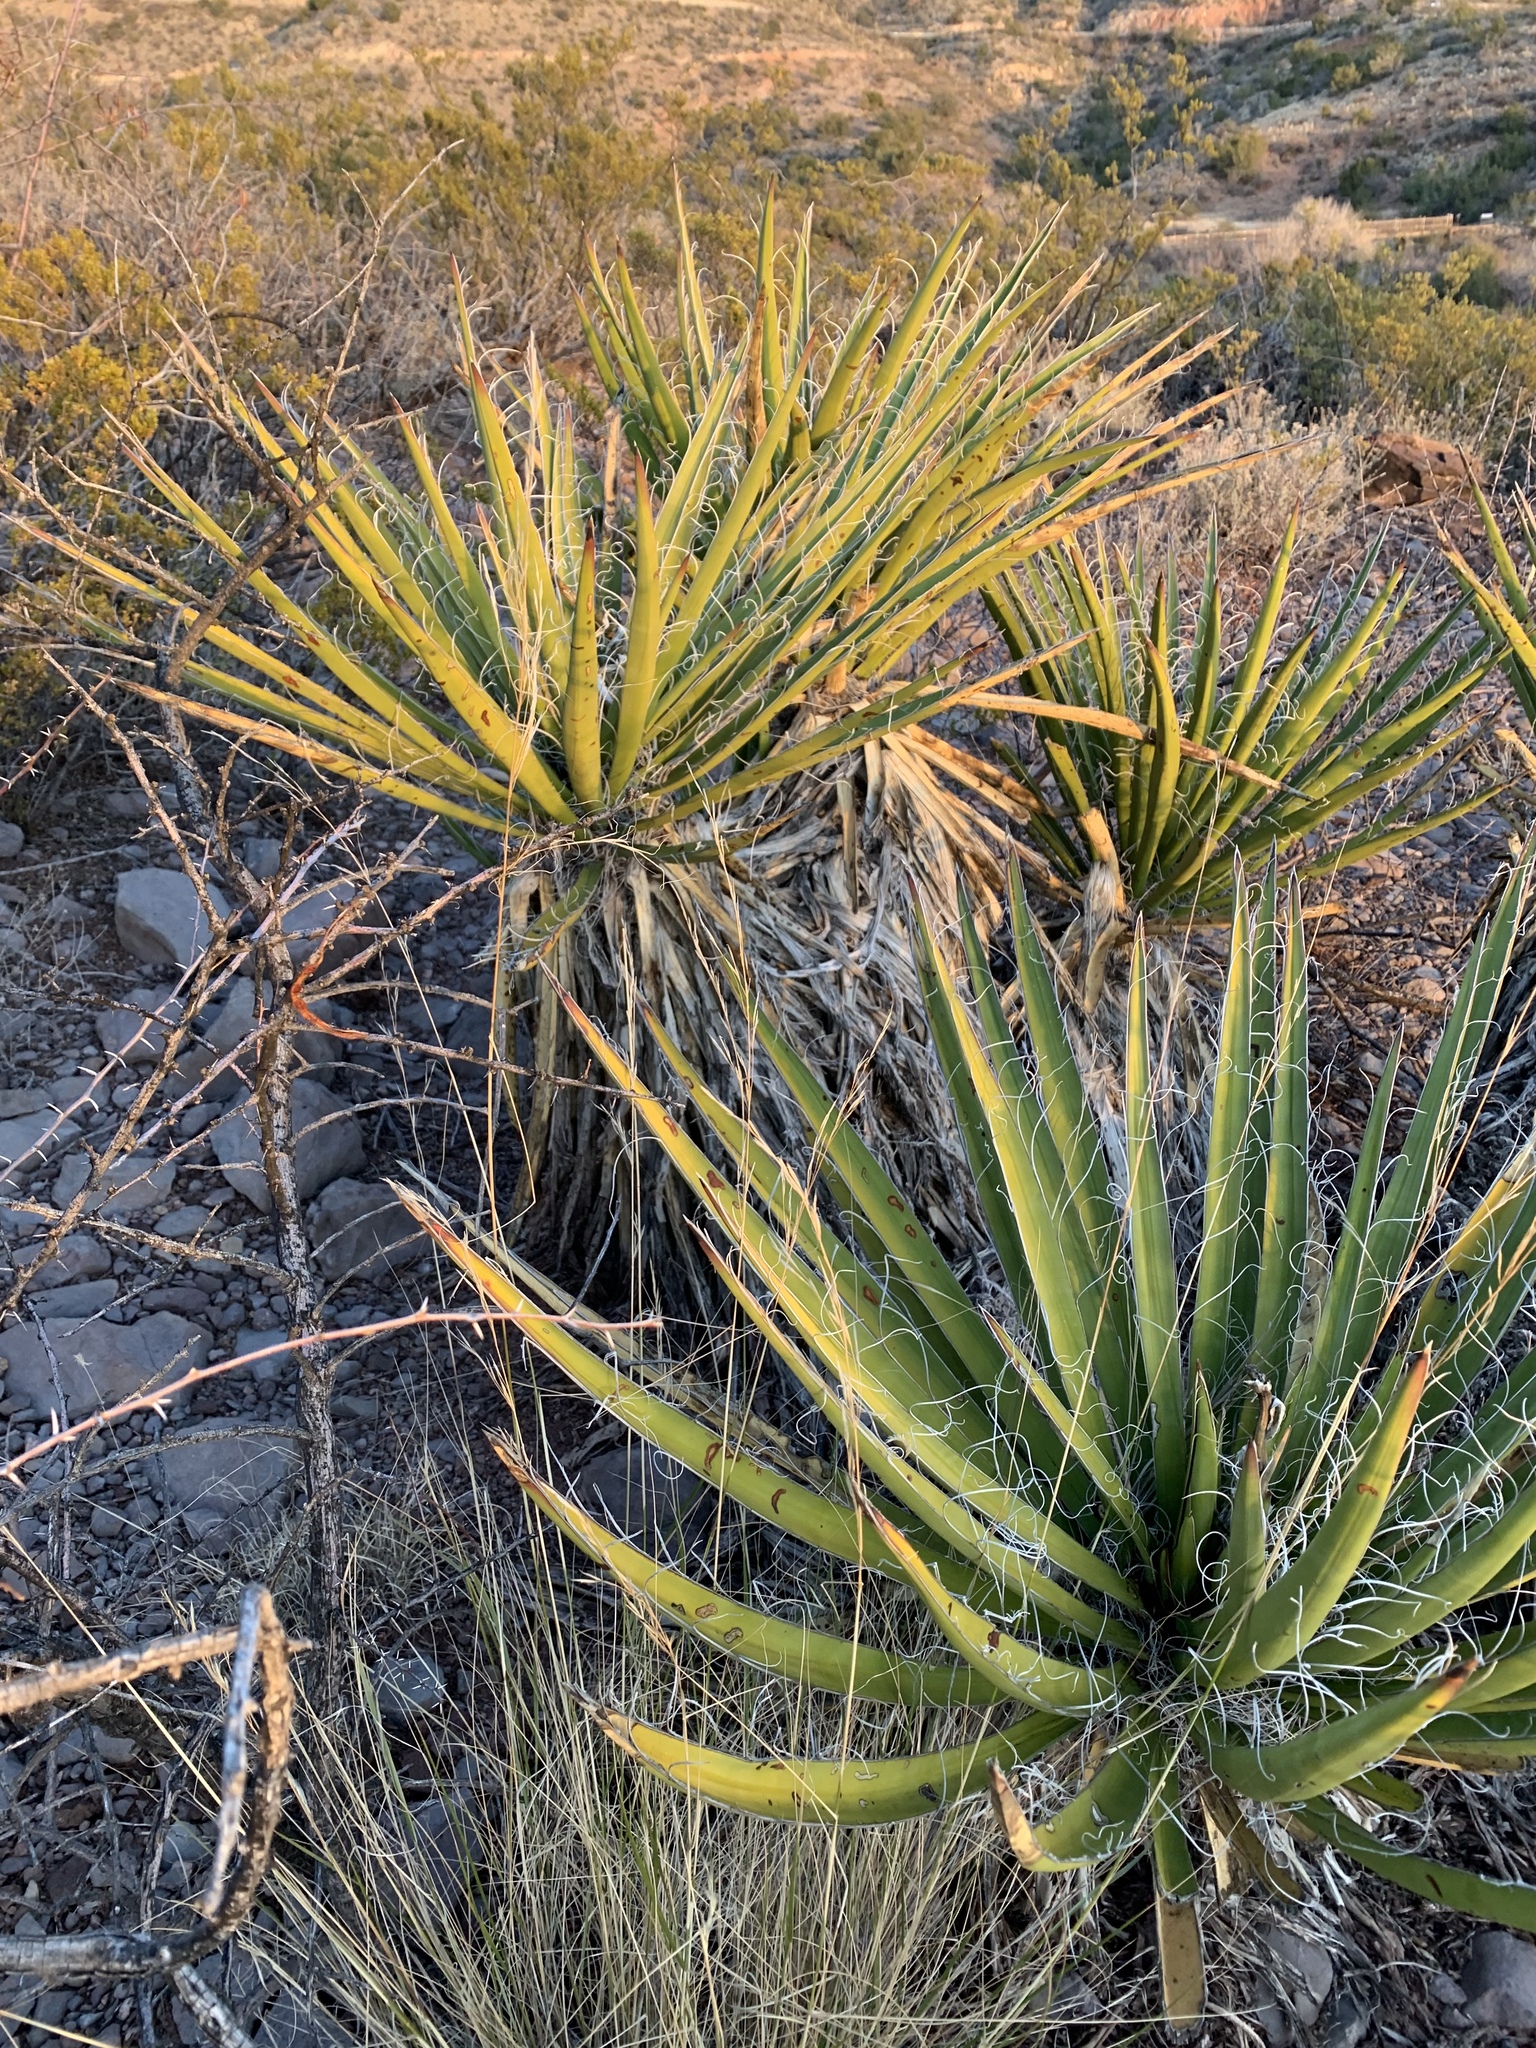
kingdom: Plantae
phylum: Tracheophyta
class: Liliopsida
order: Asparagales
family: Asparagaceae
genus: Yucca
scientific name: Yucca baccata
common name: Banana yucca
